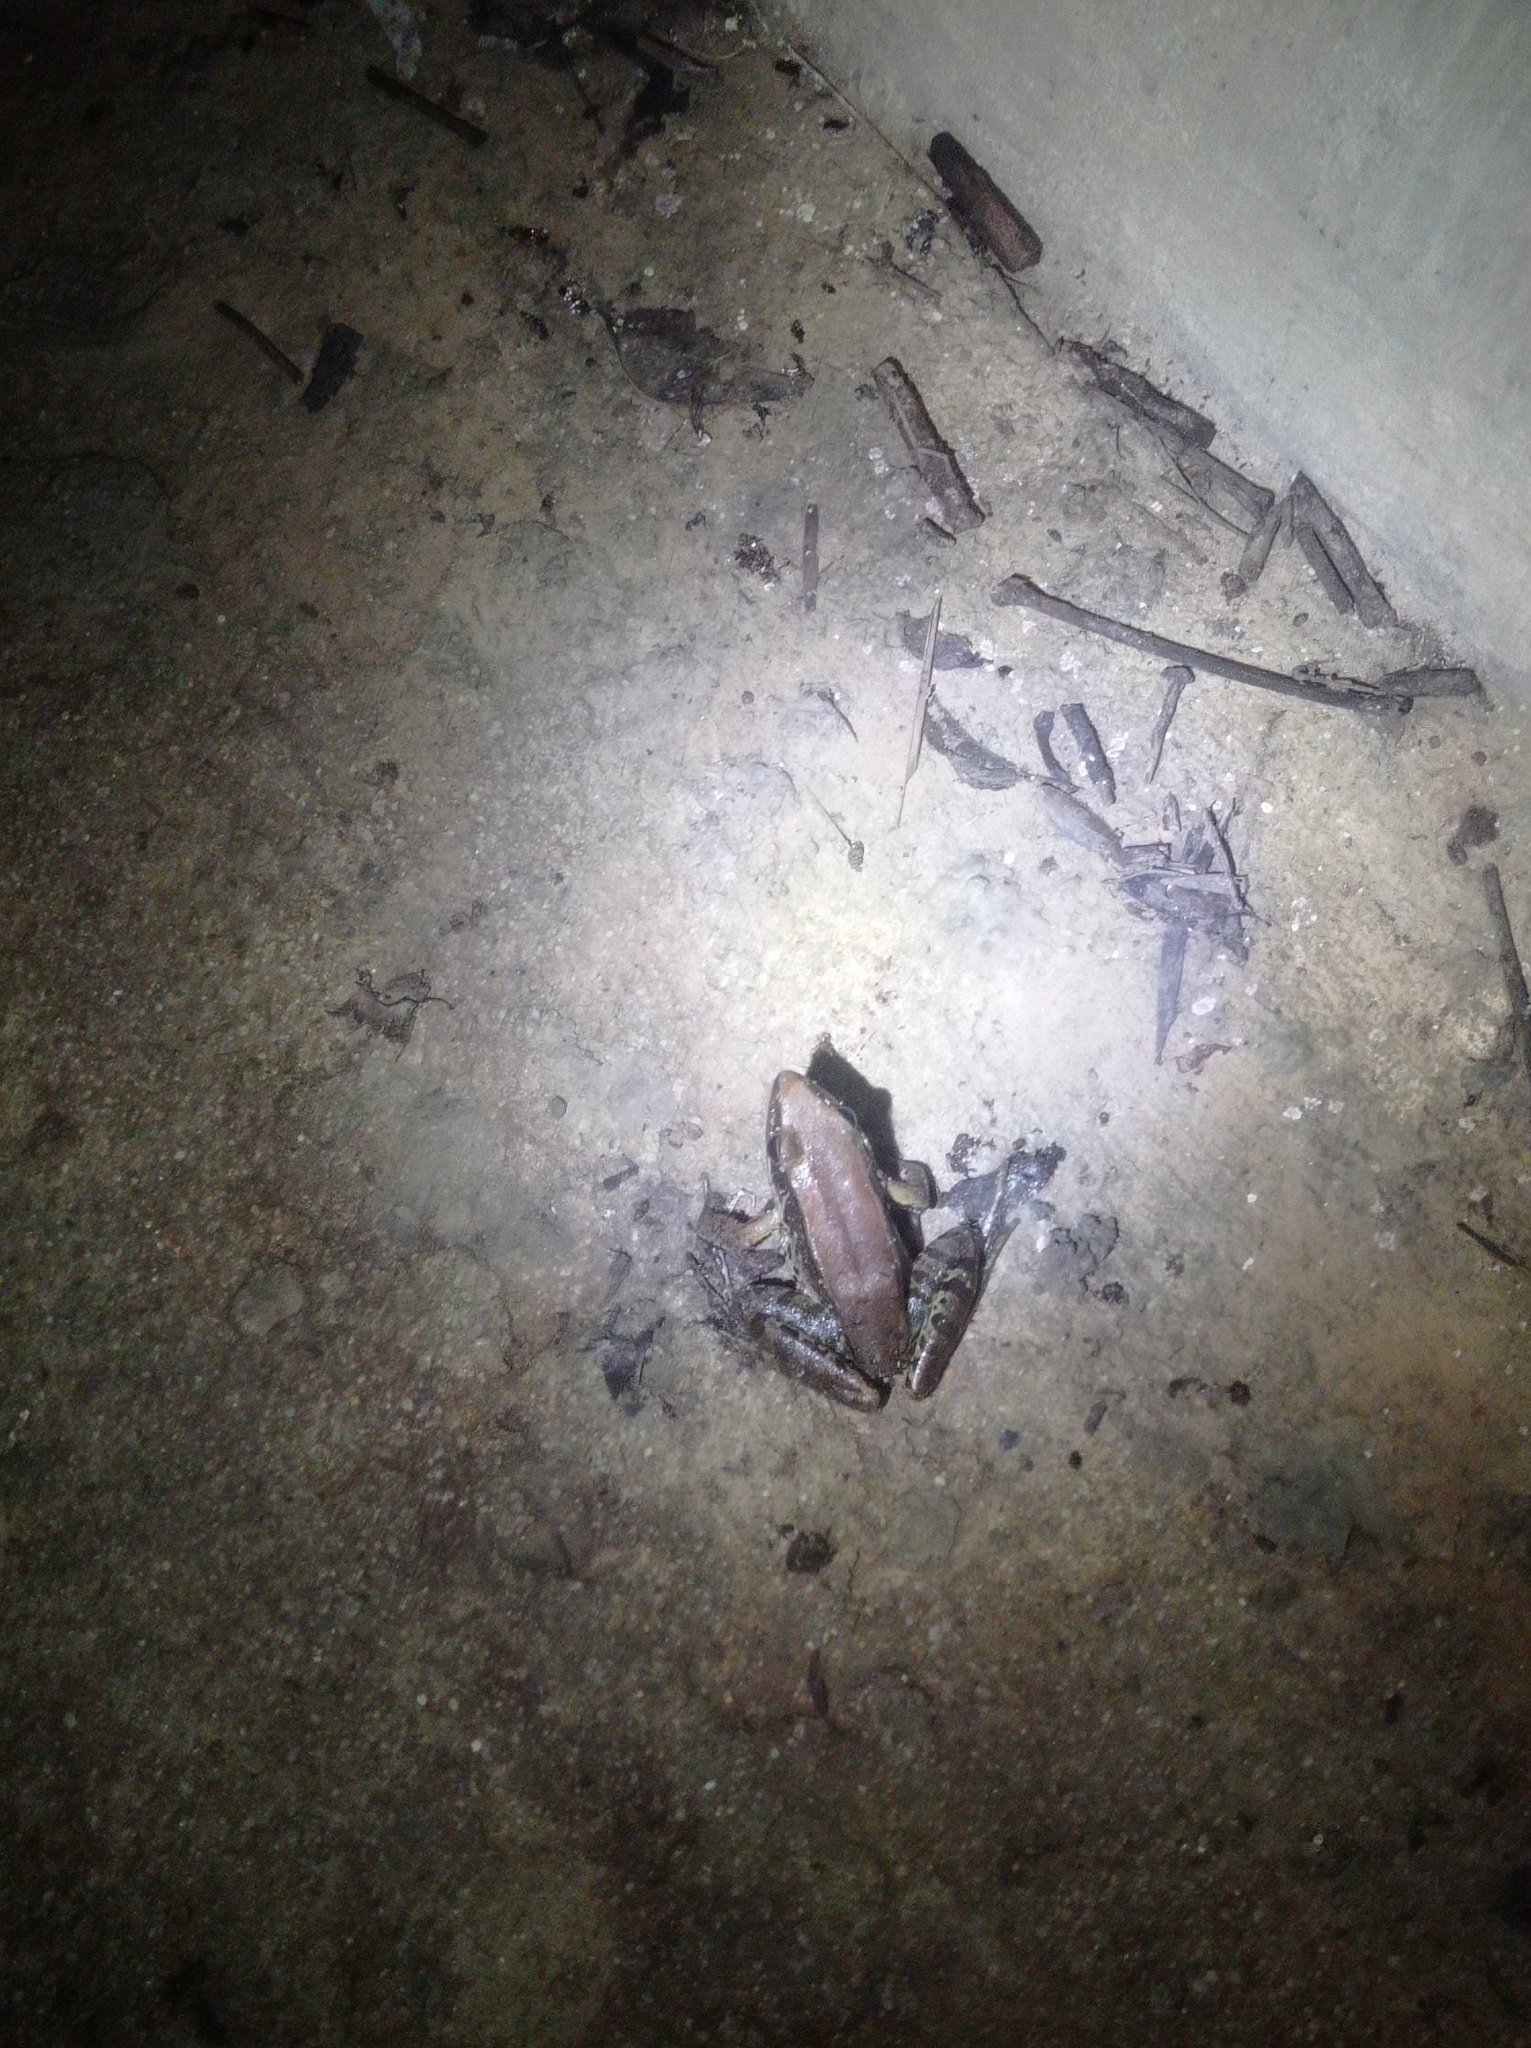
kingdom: Animalia
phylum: Chordata
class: Amphibia
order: Anura
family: Ranidae
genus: Sylvirana
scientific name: Sylvirana guentheri
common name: Guenther's amoy frog
